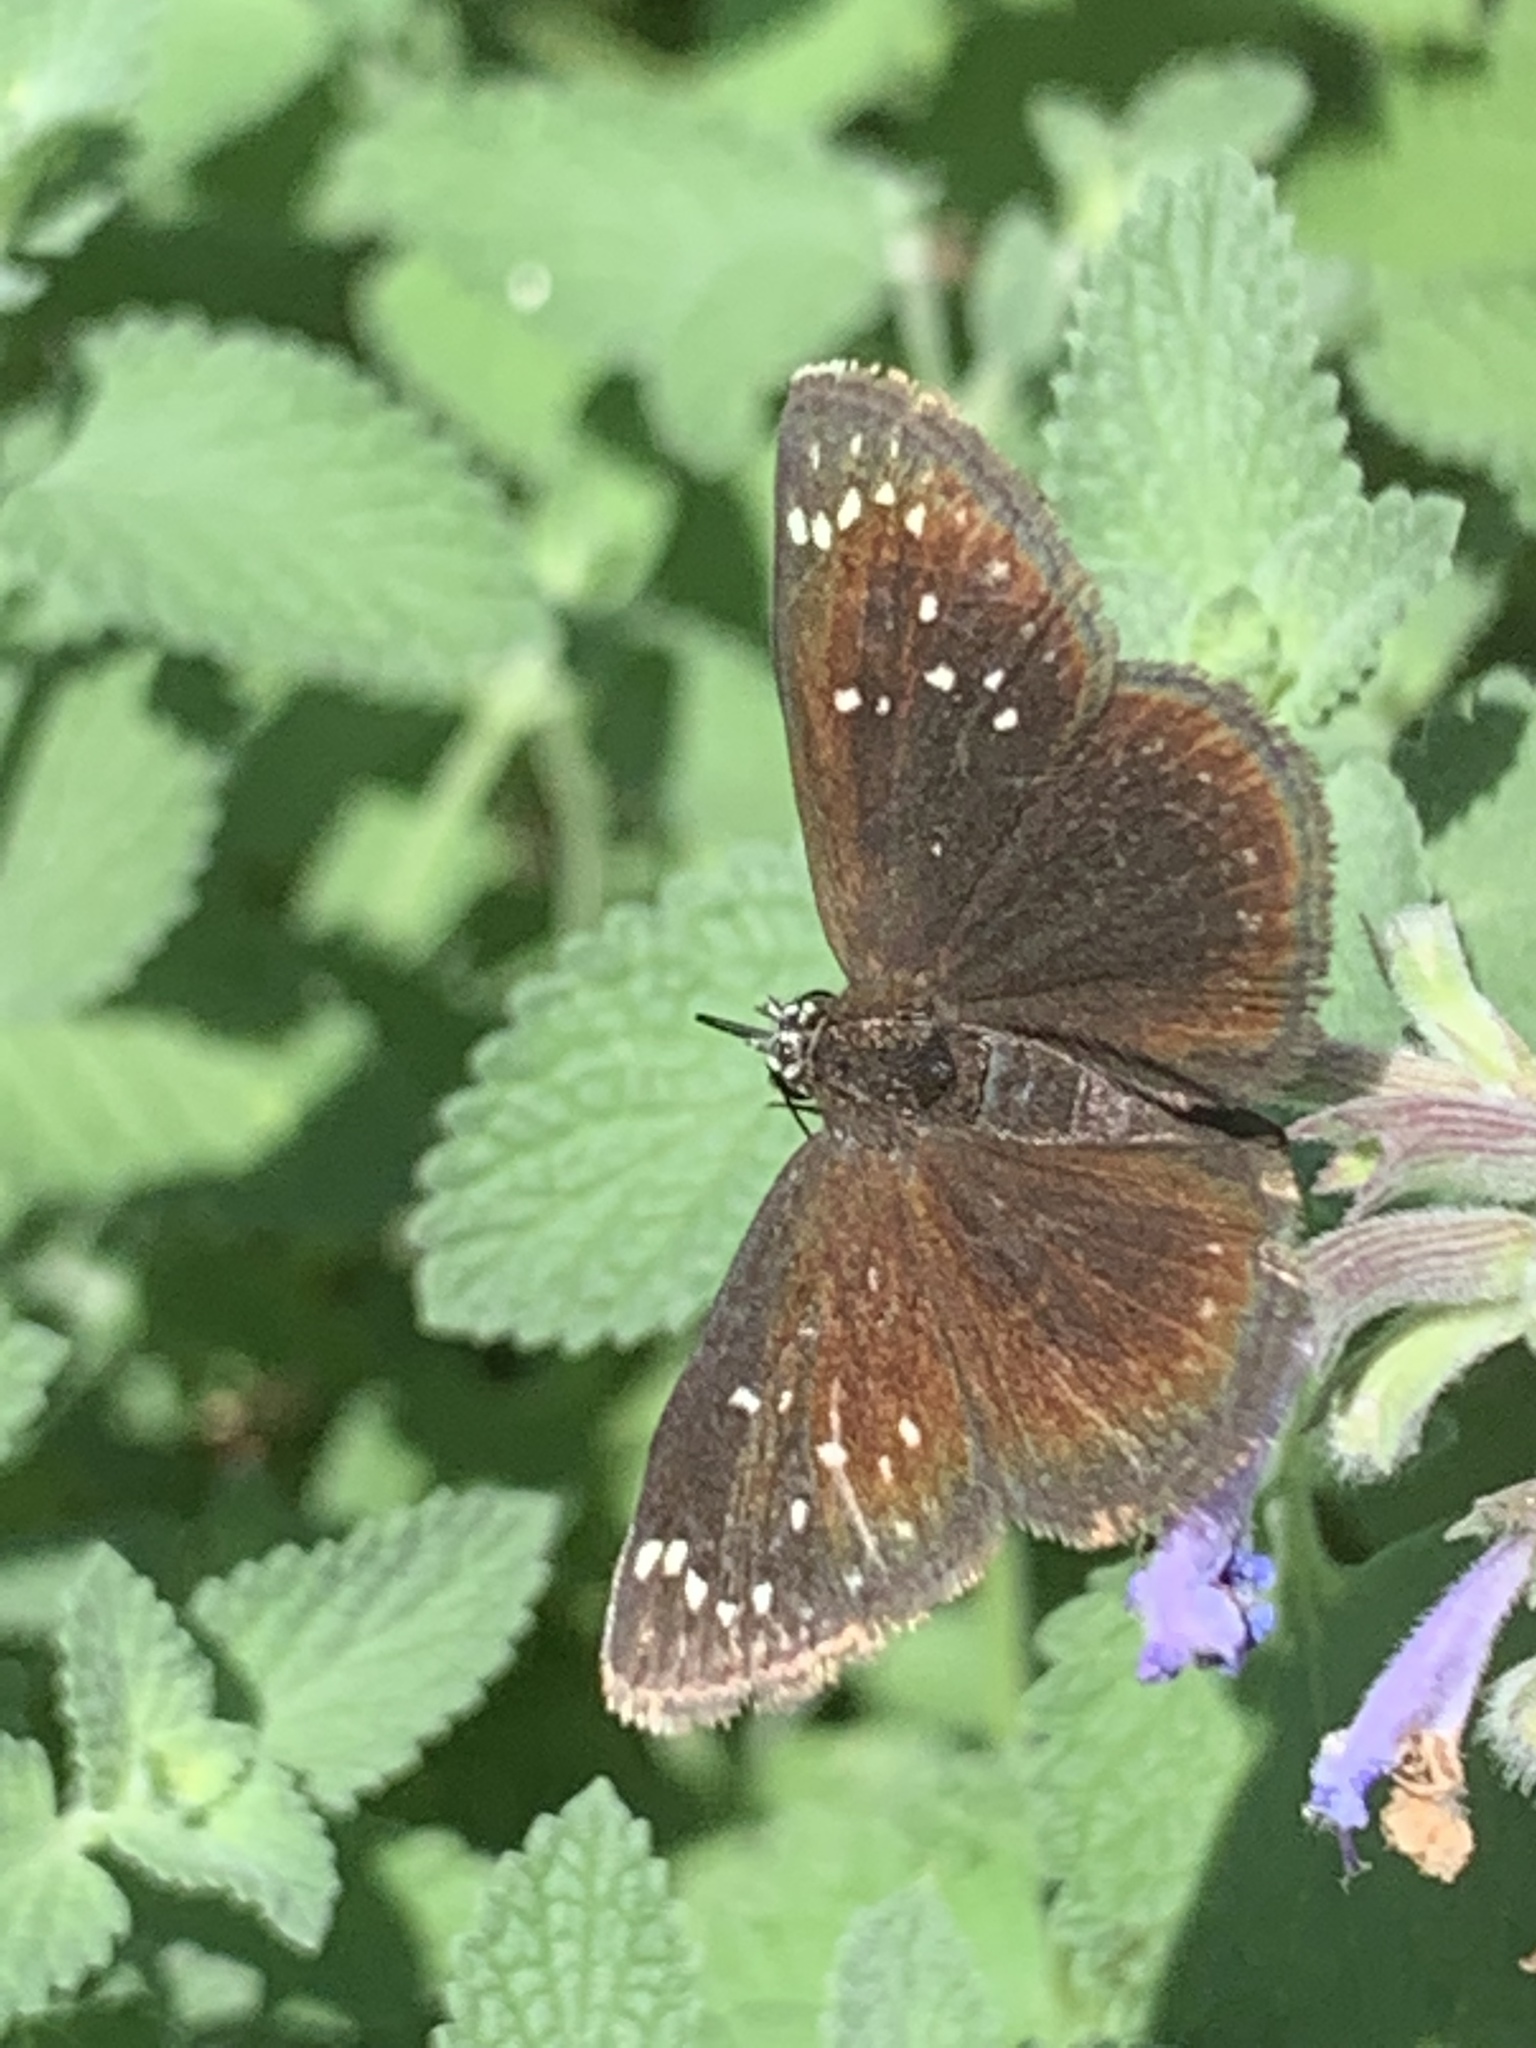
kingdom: Animalia
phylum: Arthropoda
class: Insecta
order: Lepidoptera
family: Hesperiidae
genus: Pholisora
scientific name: Pholisora catullus
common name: Common sootywing
